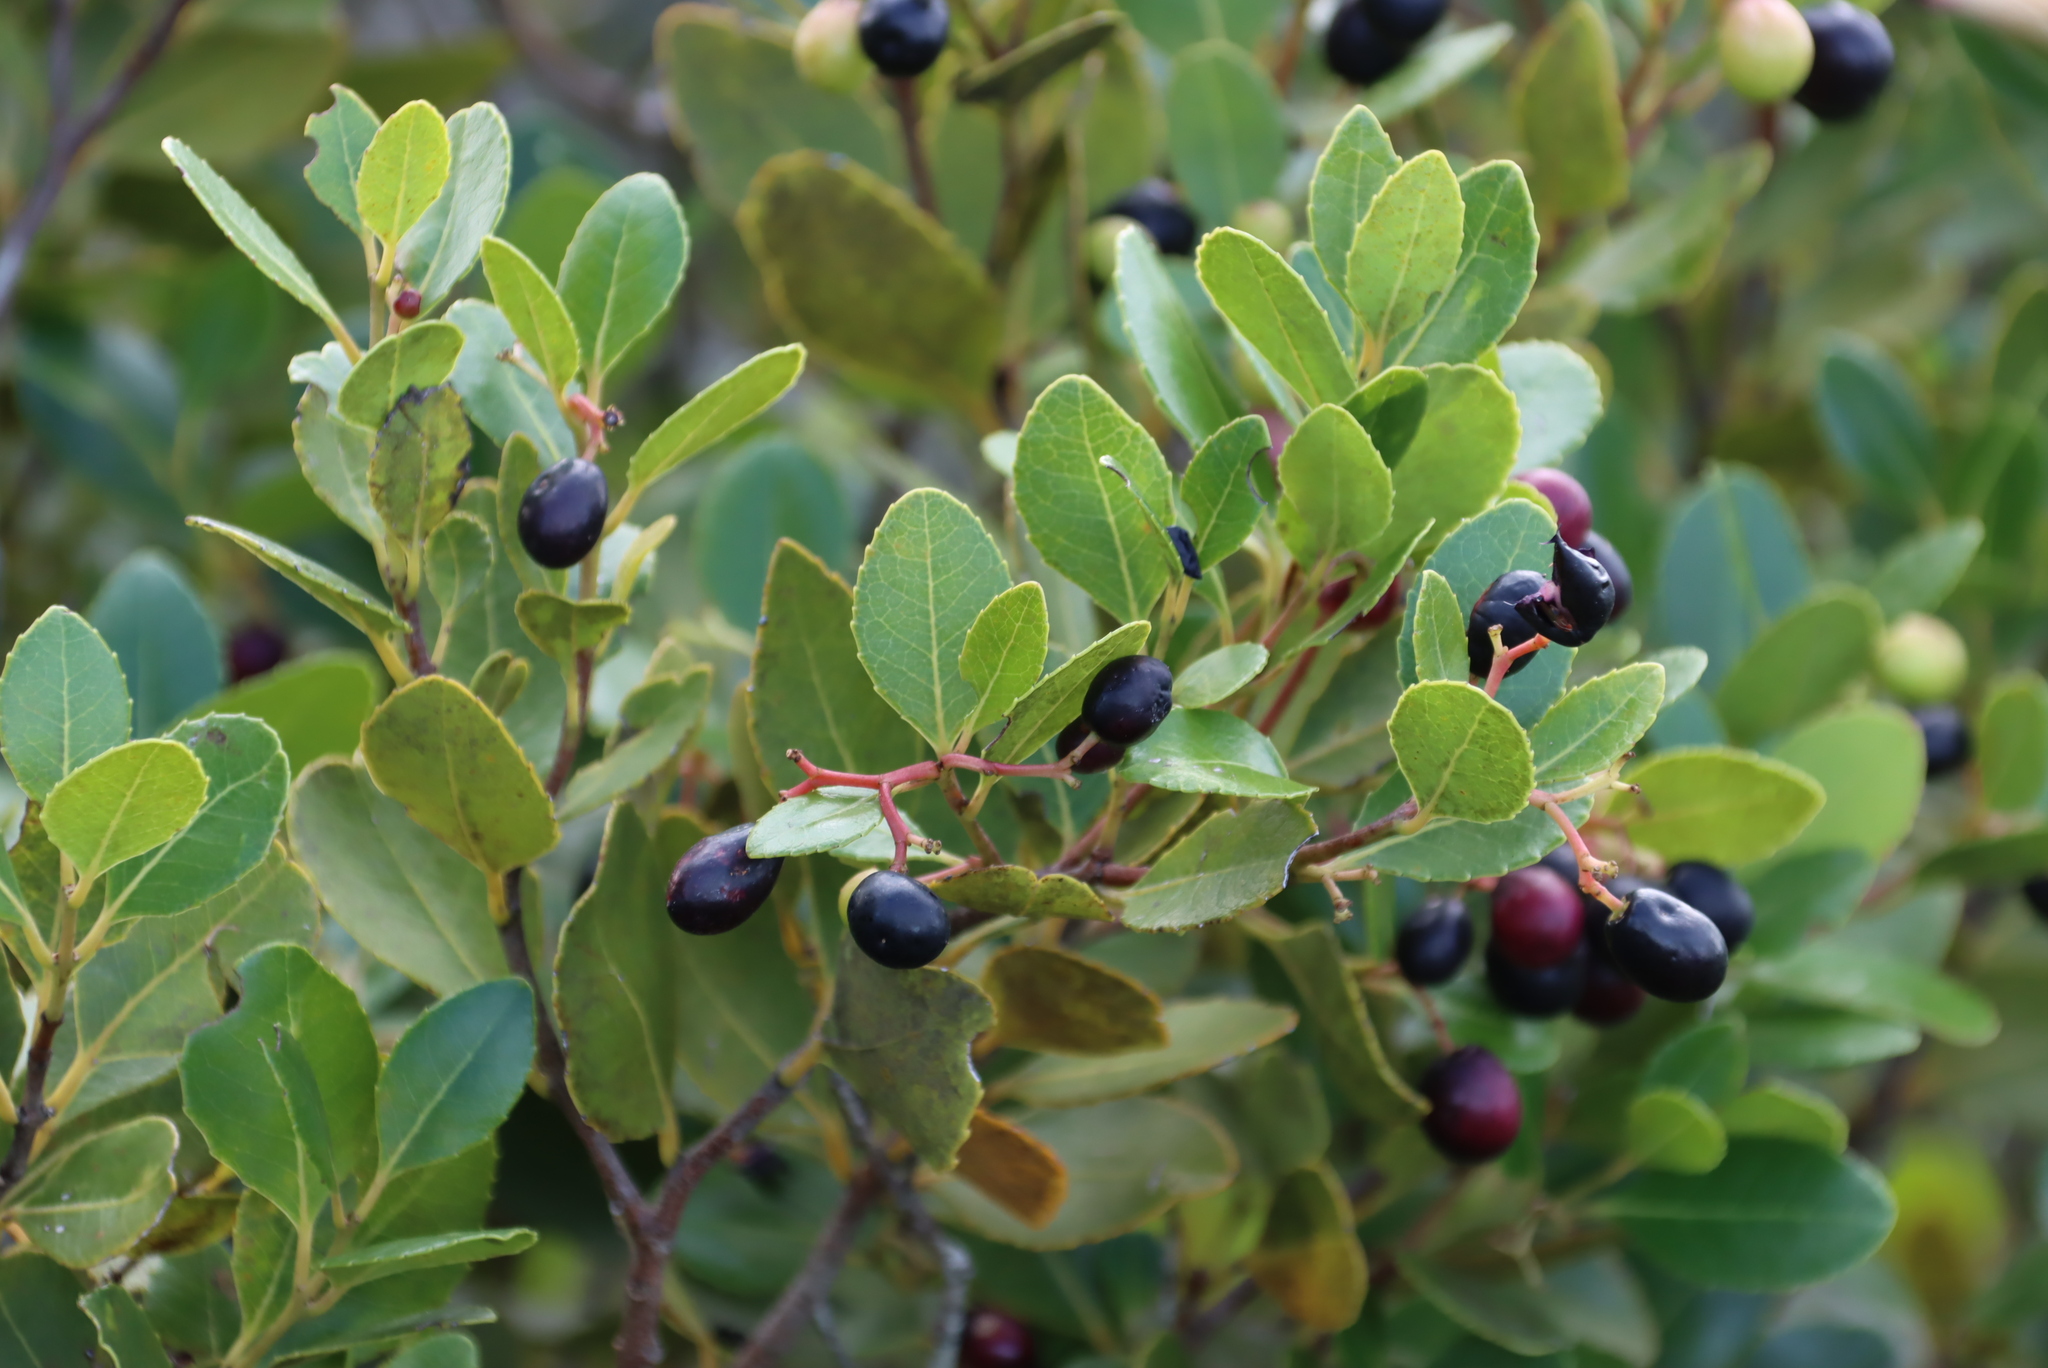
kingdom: Plantae
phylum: Tracheophyta
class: Magnoliopsida
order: Celastrales
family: Celastraceae
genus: Cassine
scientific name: Cassine peragua
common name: Cape saffron
